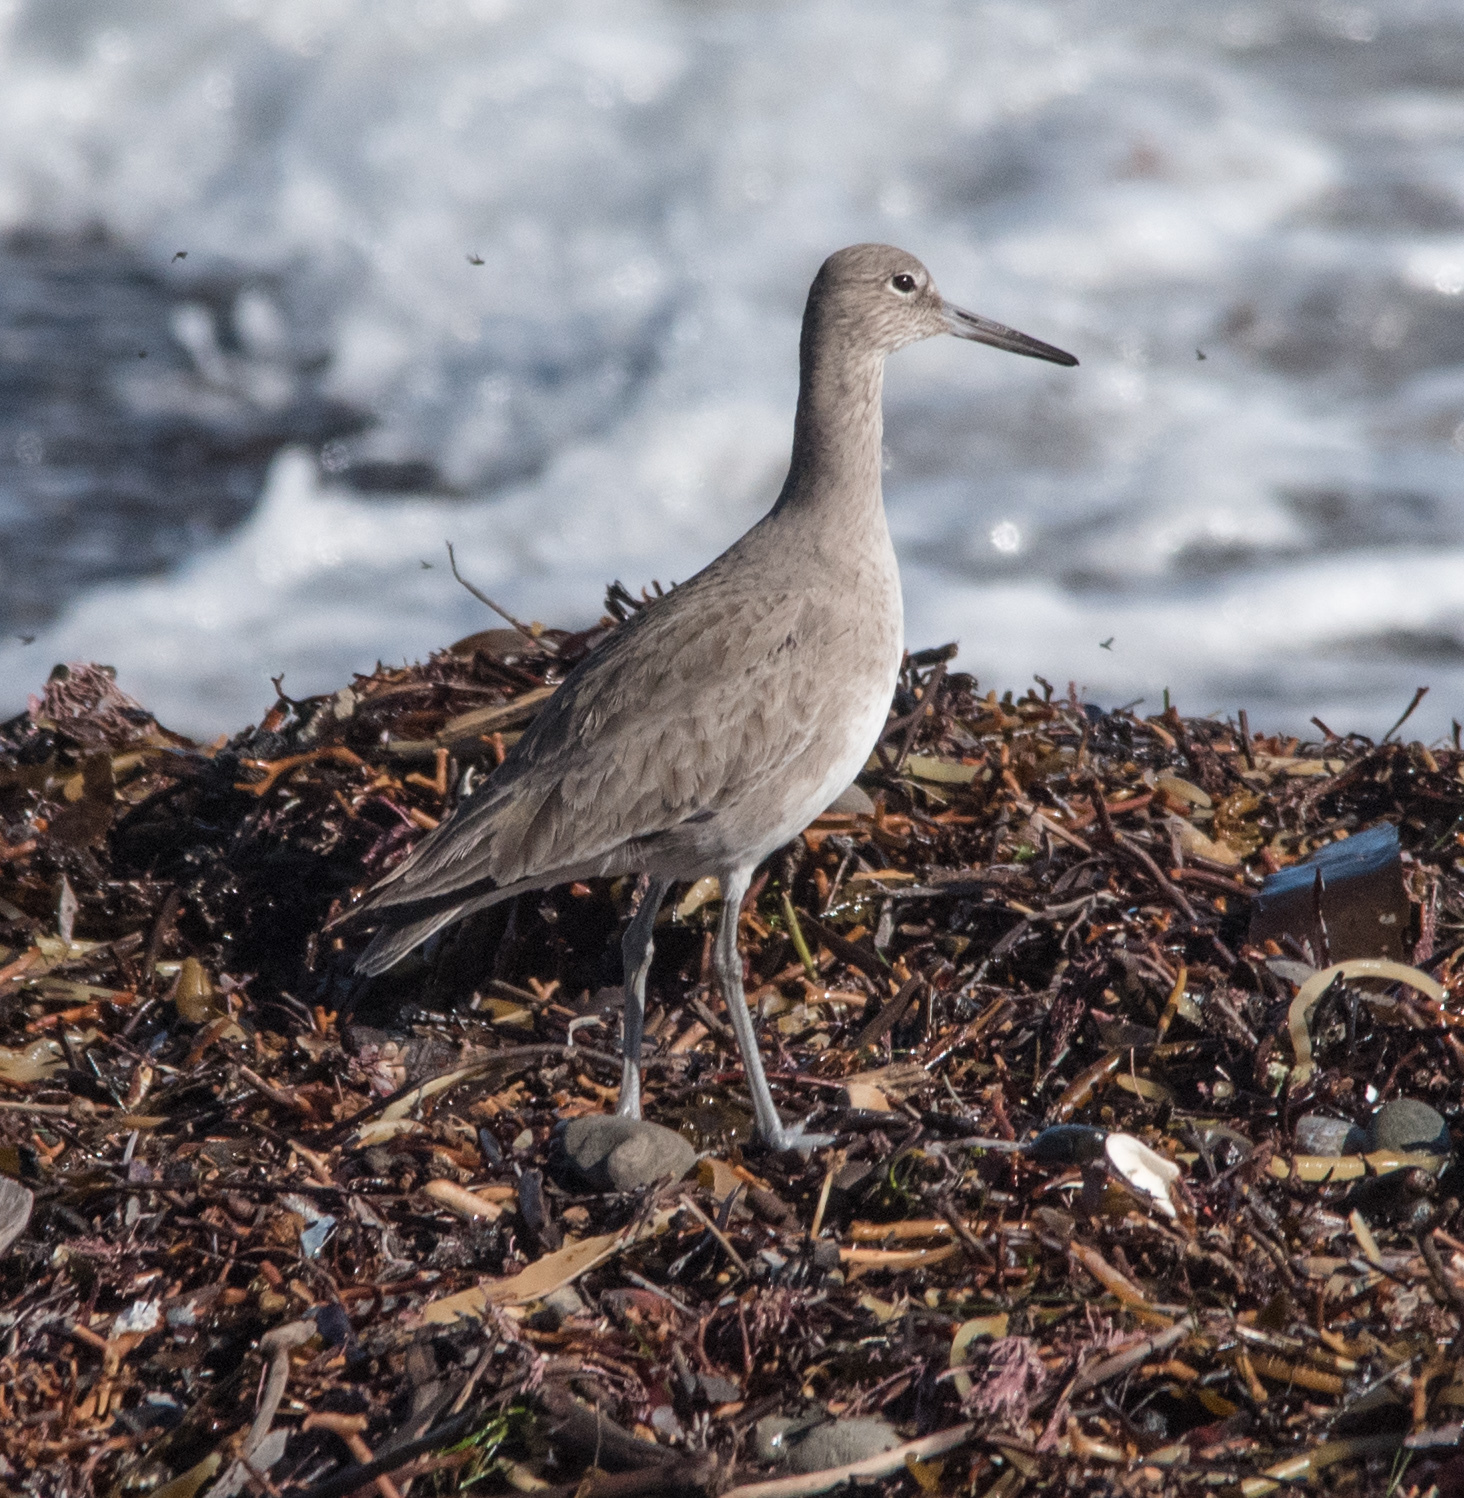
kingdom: Animalia
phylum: Chordata
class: Aves
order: Charadriiformes
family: Scolopacidae
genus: Tringa
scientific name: Tringa semipalmata
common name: Willet
